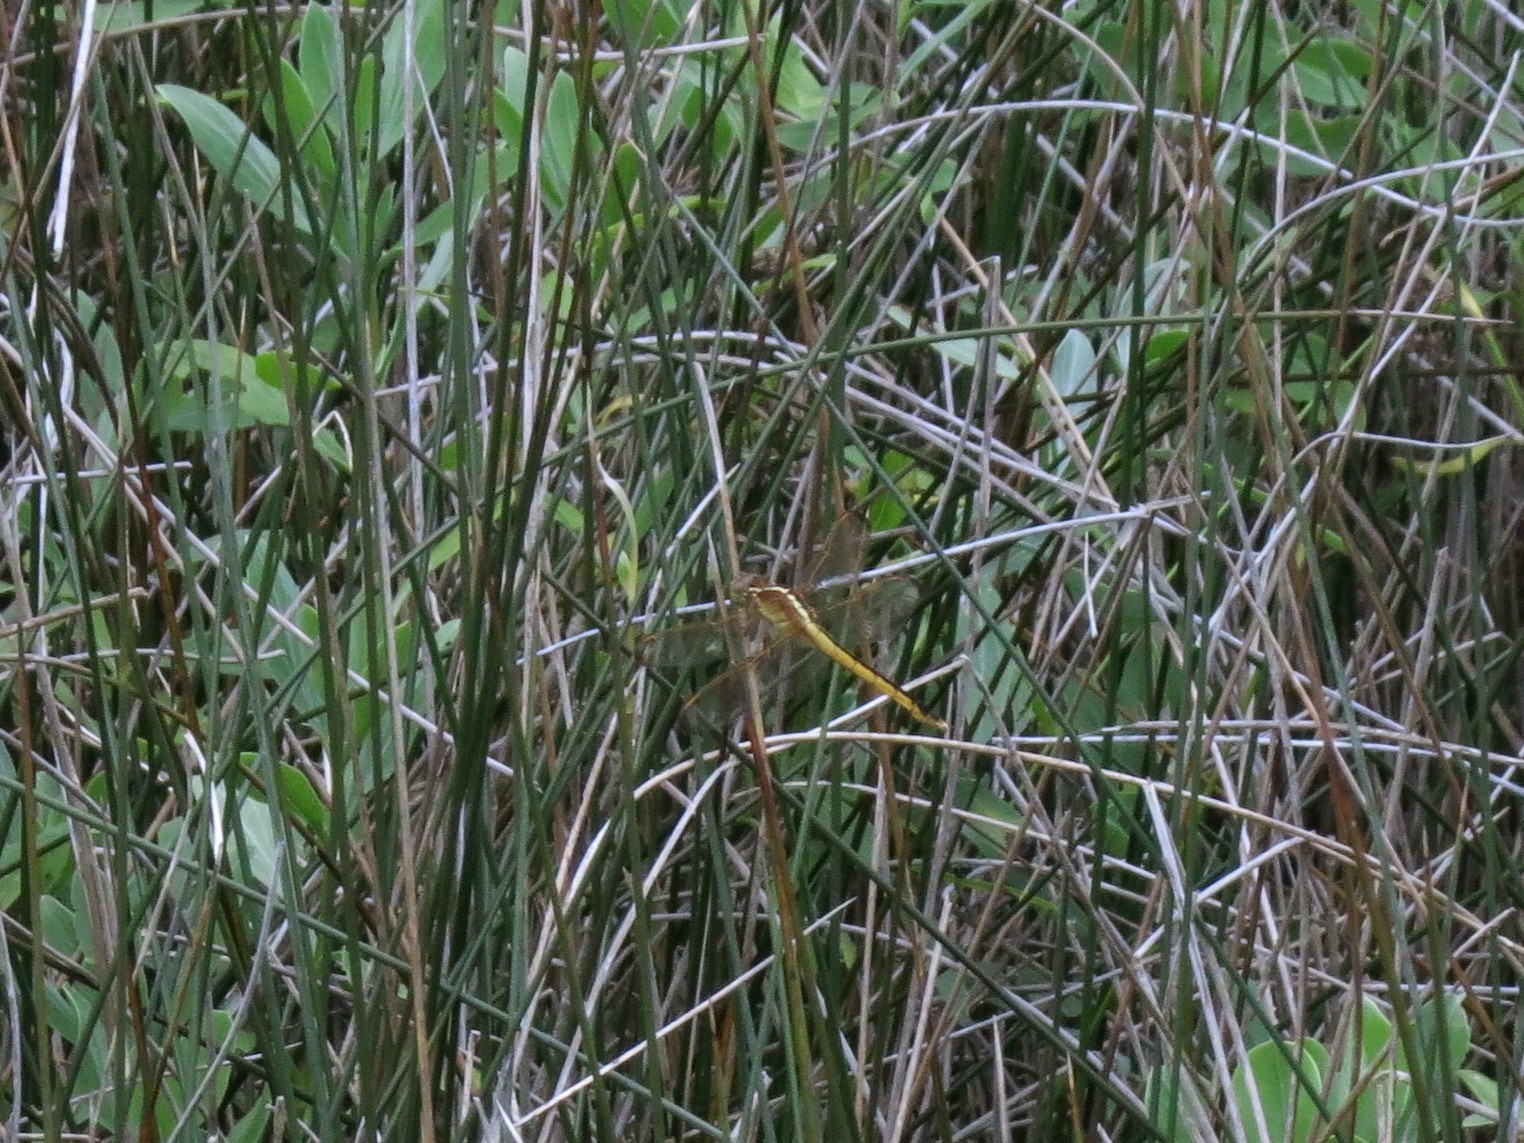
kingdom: Animalia
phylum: Arthropoda
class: Insecta
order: Odonata
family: Libellulidae
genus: Libellula
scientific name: Libellula needhami
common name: Needham's skimmer
